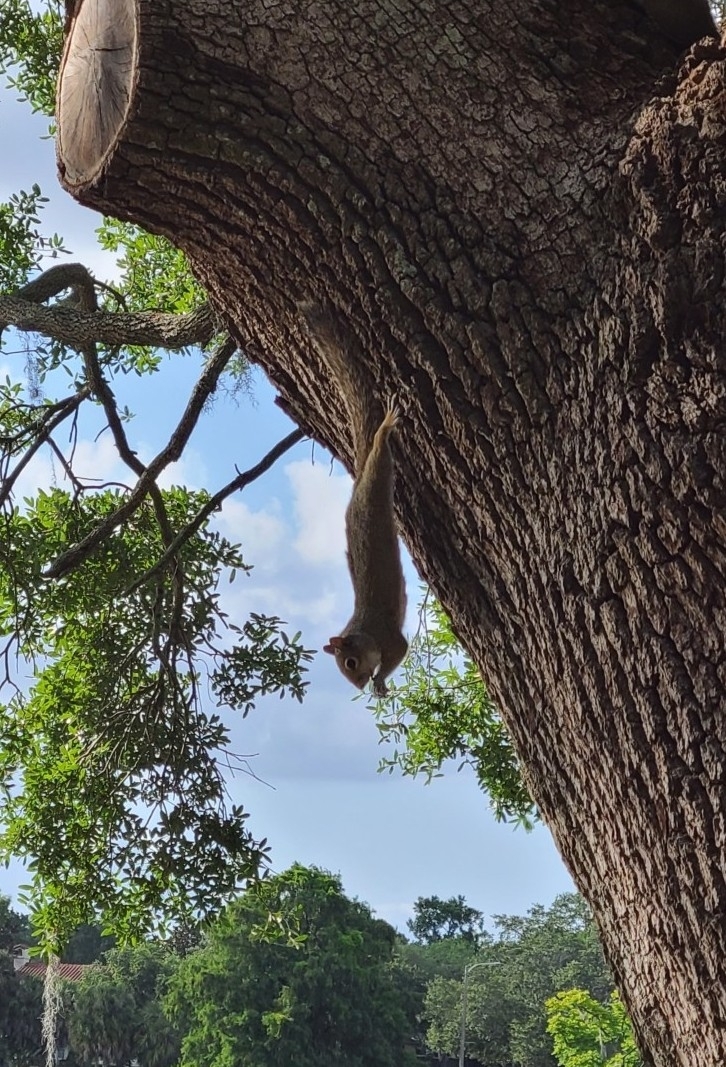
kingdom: Animalia
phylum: Chordata
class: Mammalia
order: Rodentia
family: Sciuridae
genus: Sciurus
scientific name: Sciurus carolinensis
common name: Eastern gray squirrel
